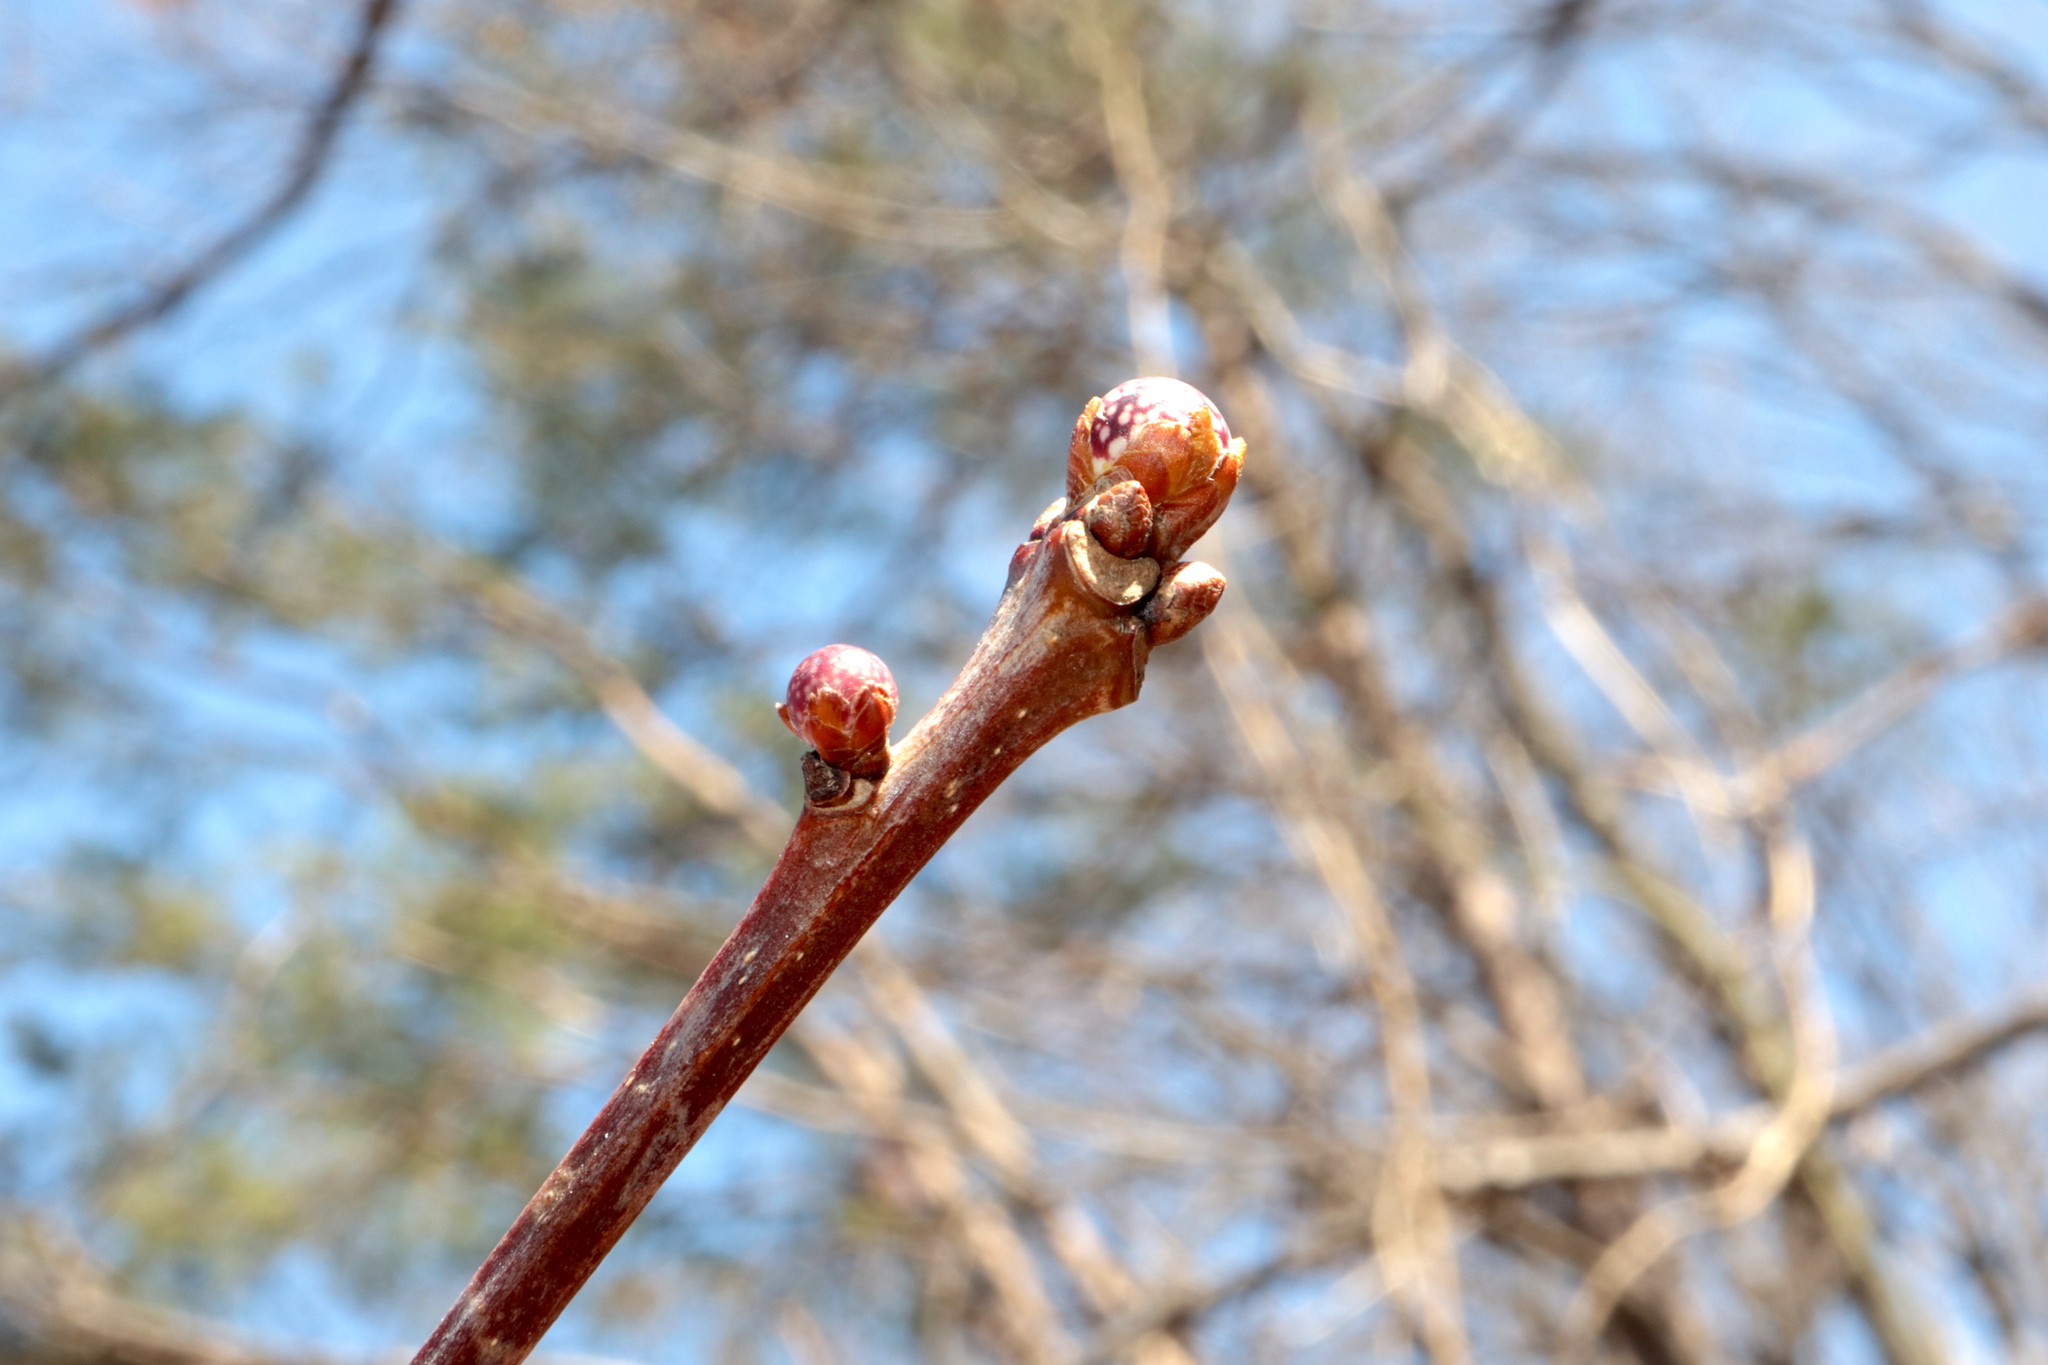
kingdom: Animalia
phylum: Arthropoda
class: Insecta
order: Hymenoptera
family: Cynipidae
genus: Andricus
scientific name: Andricus
